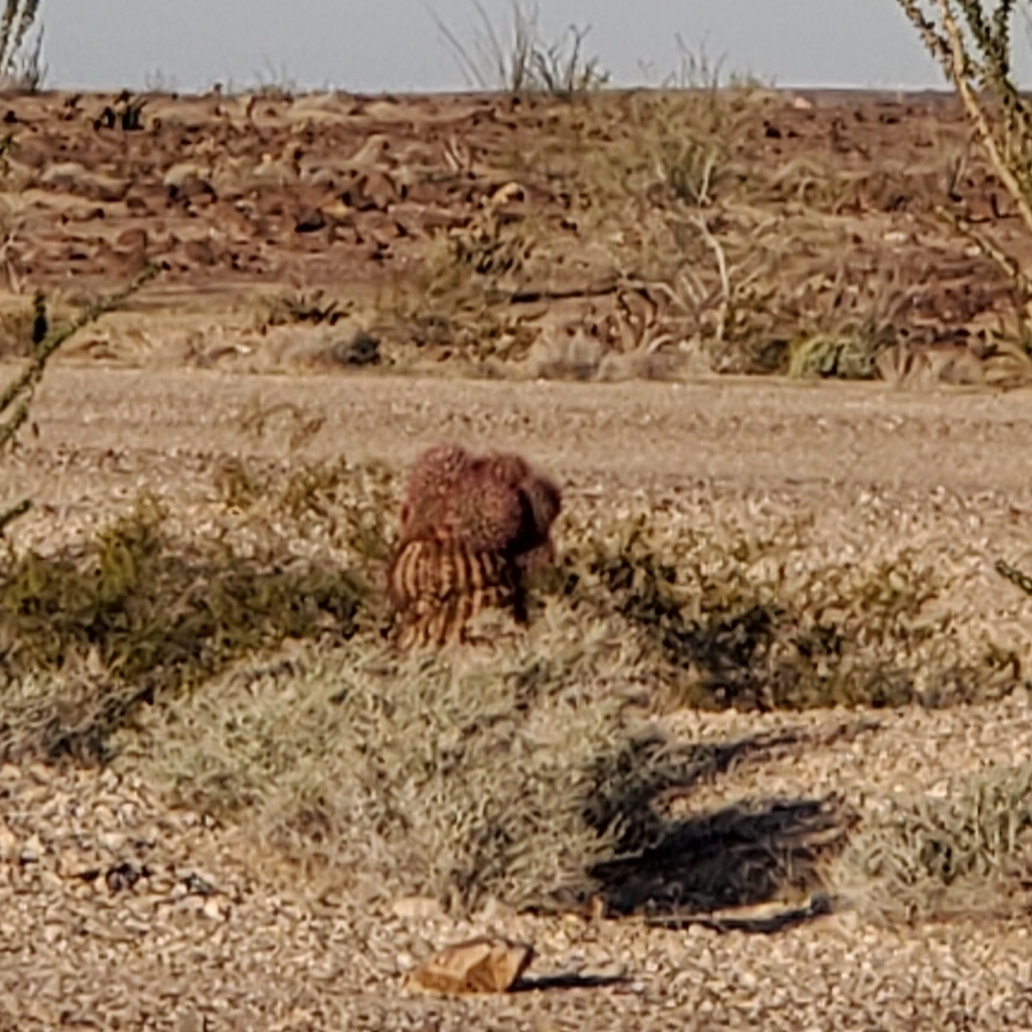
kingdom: Plantae
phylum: Tracheophyta
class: Magnoliopsida
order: Caryophyllales
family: Cactaceae
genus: Ferocactus
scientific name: Ferocactus cylindraceus
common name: California barrel cactus
